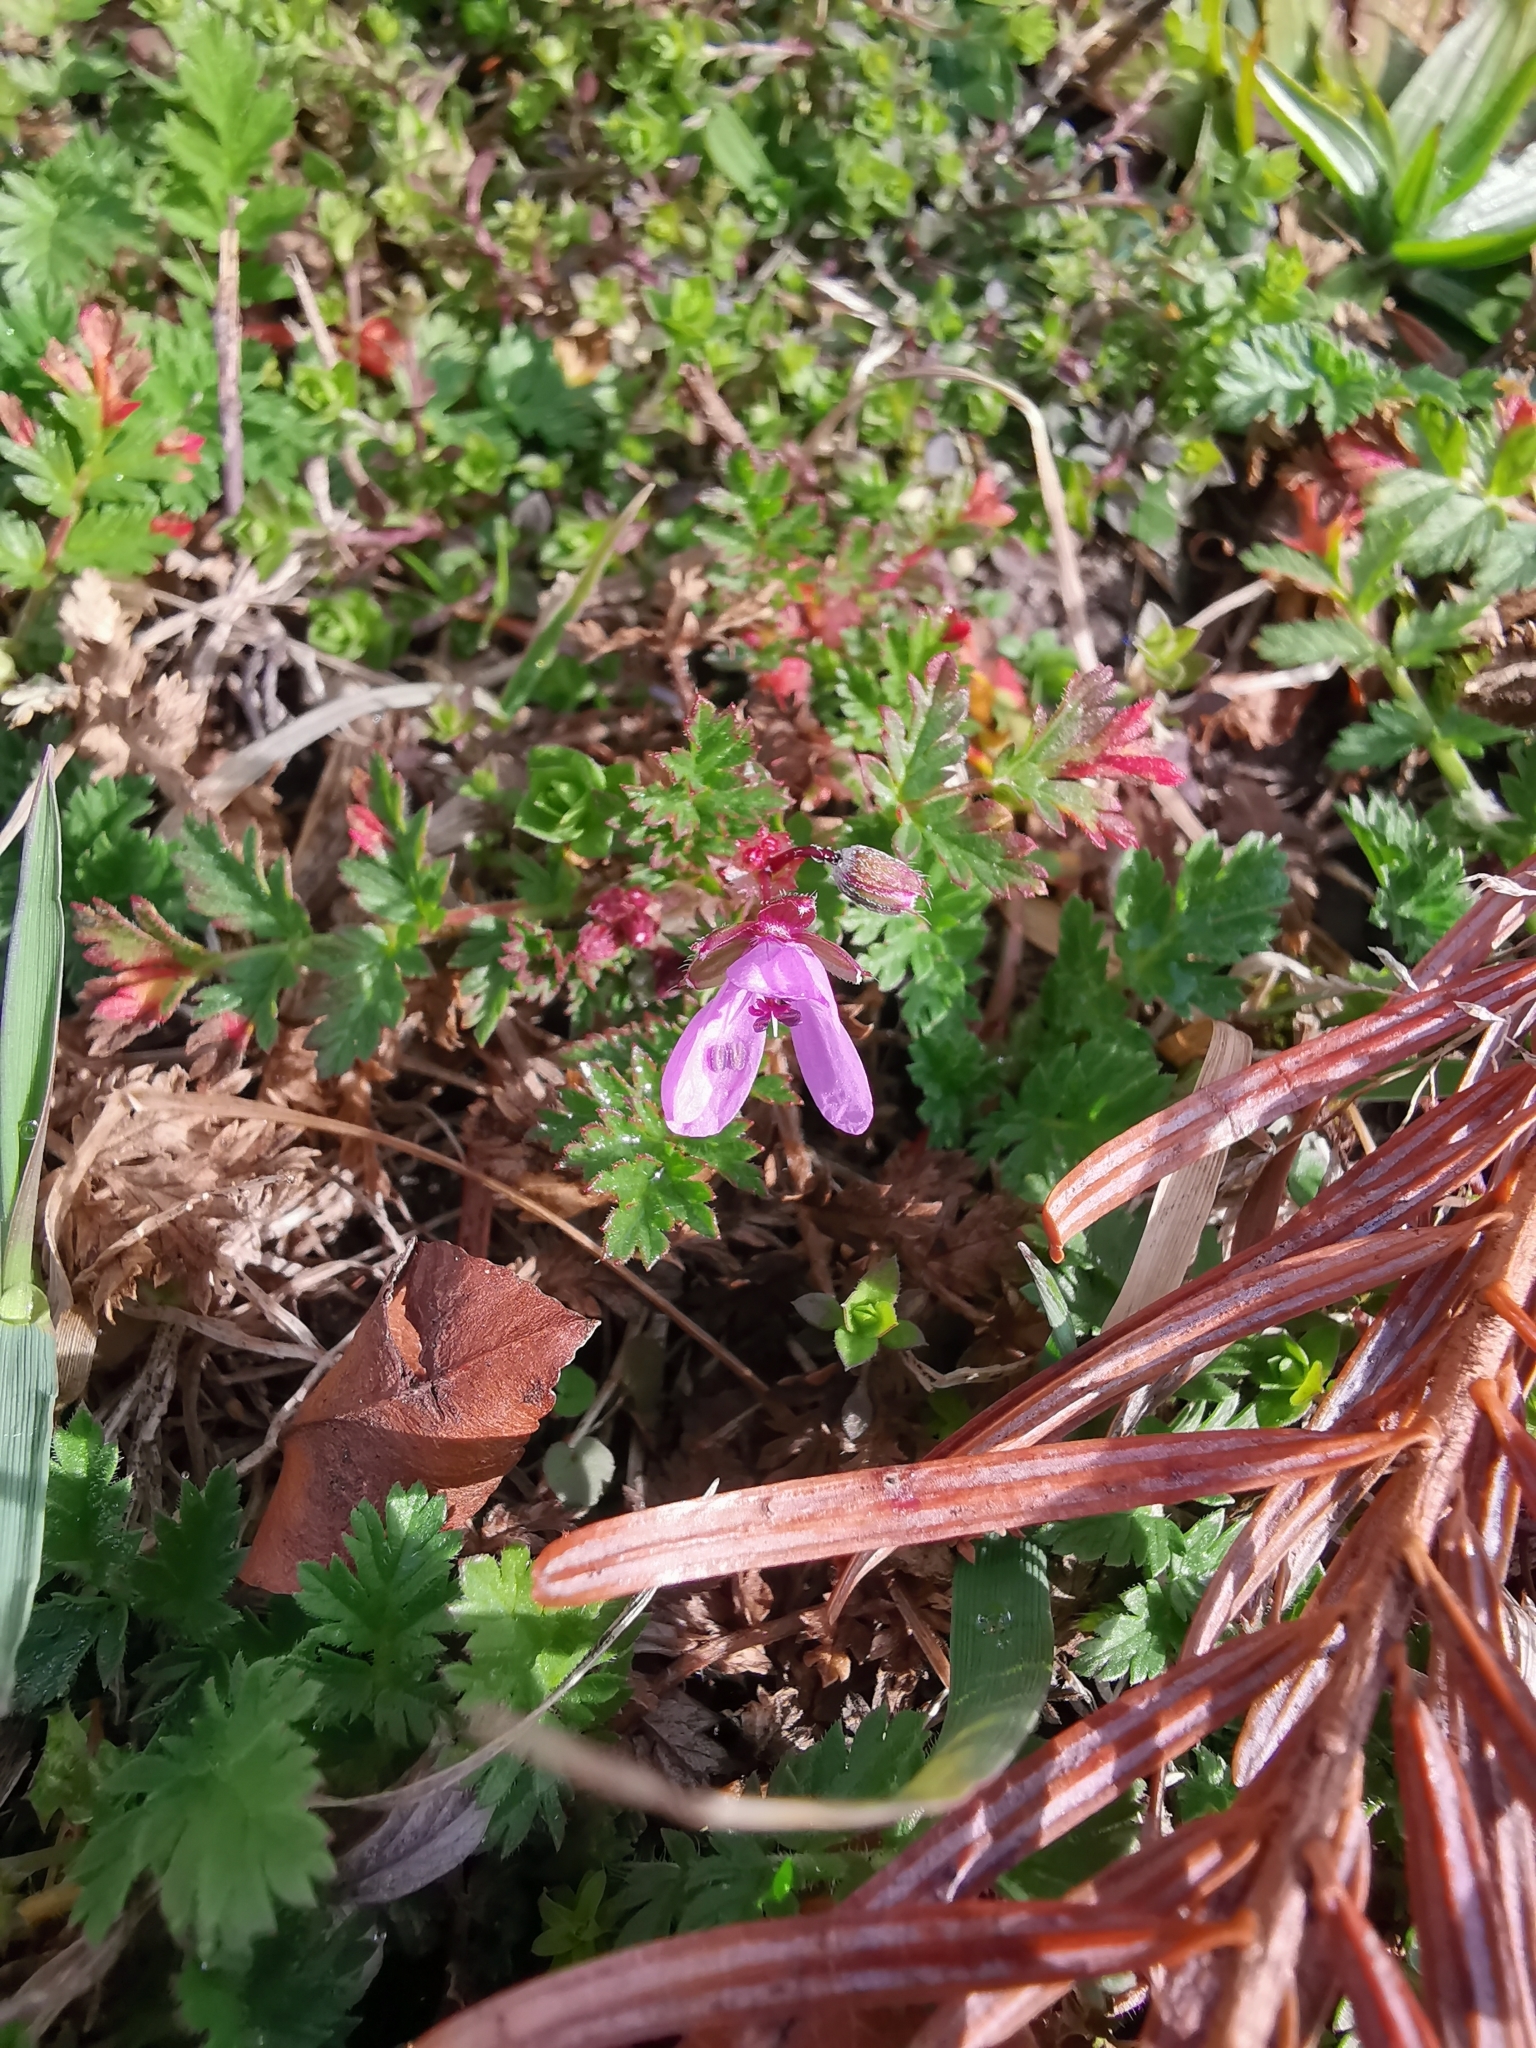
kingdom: Plantae
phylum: Tracheophyta
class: Magnoliopsida
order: Geraniales
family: Geraniaceae
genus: Erodium
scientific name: Erodium cicutarium
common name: Common stork's-bill
